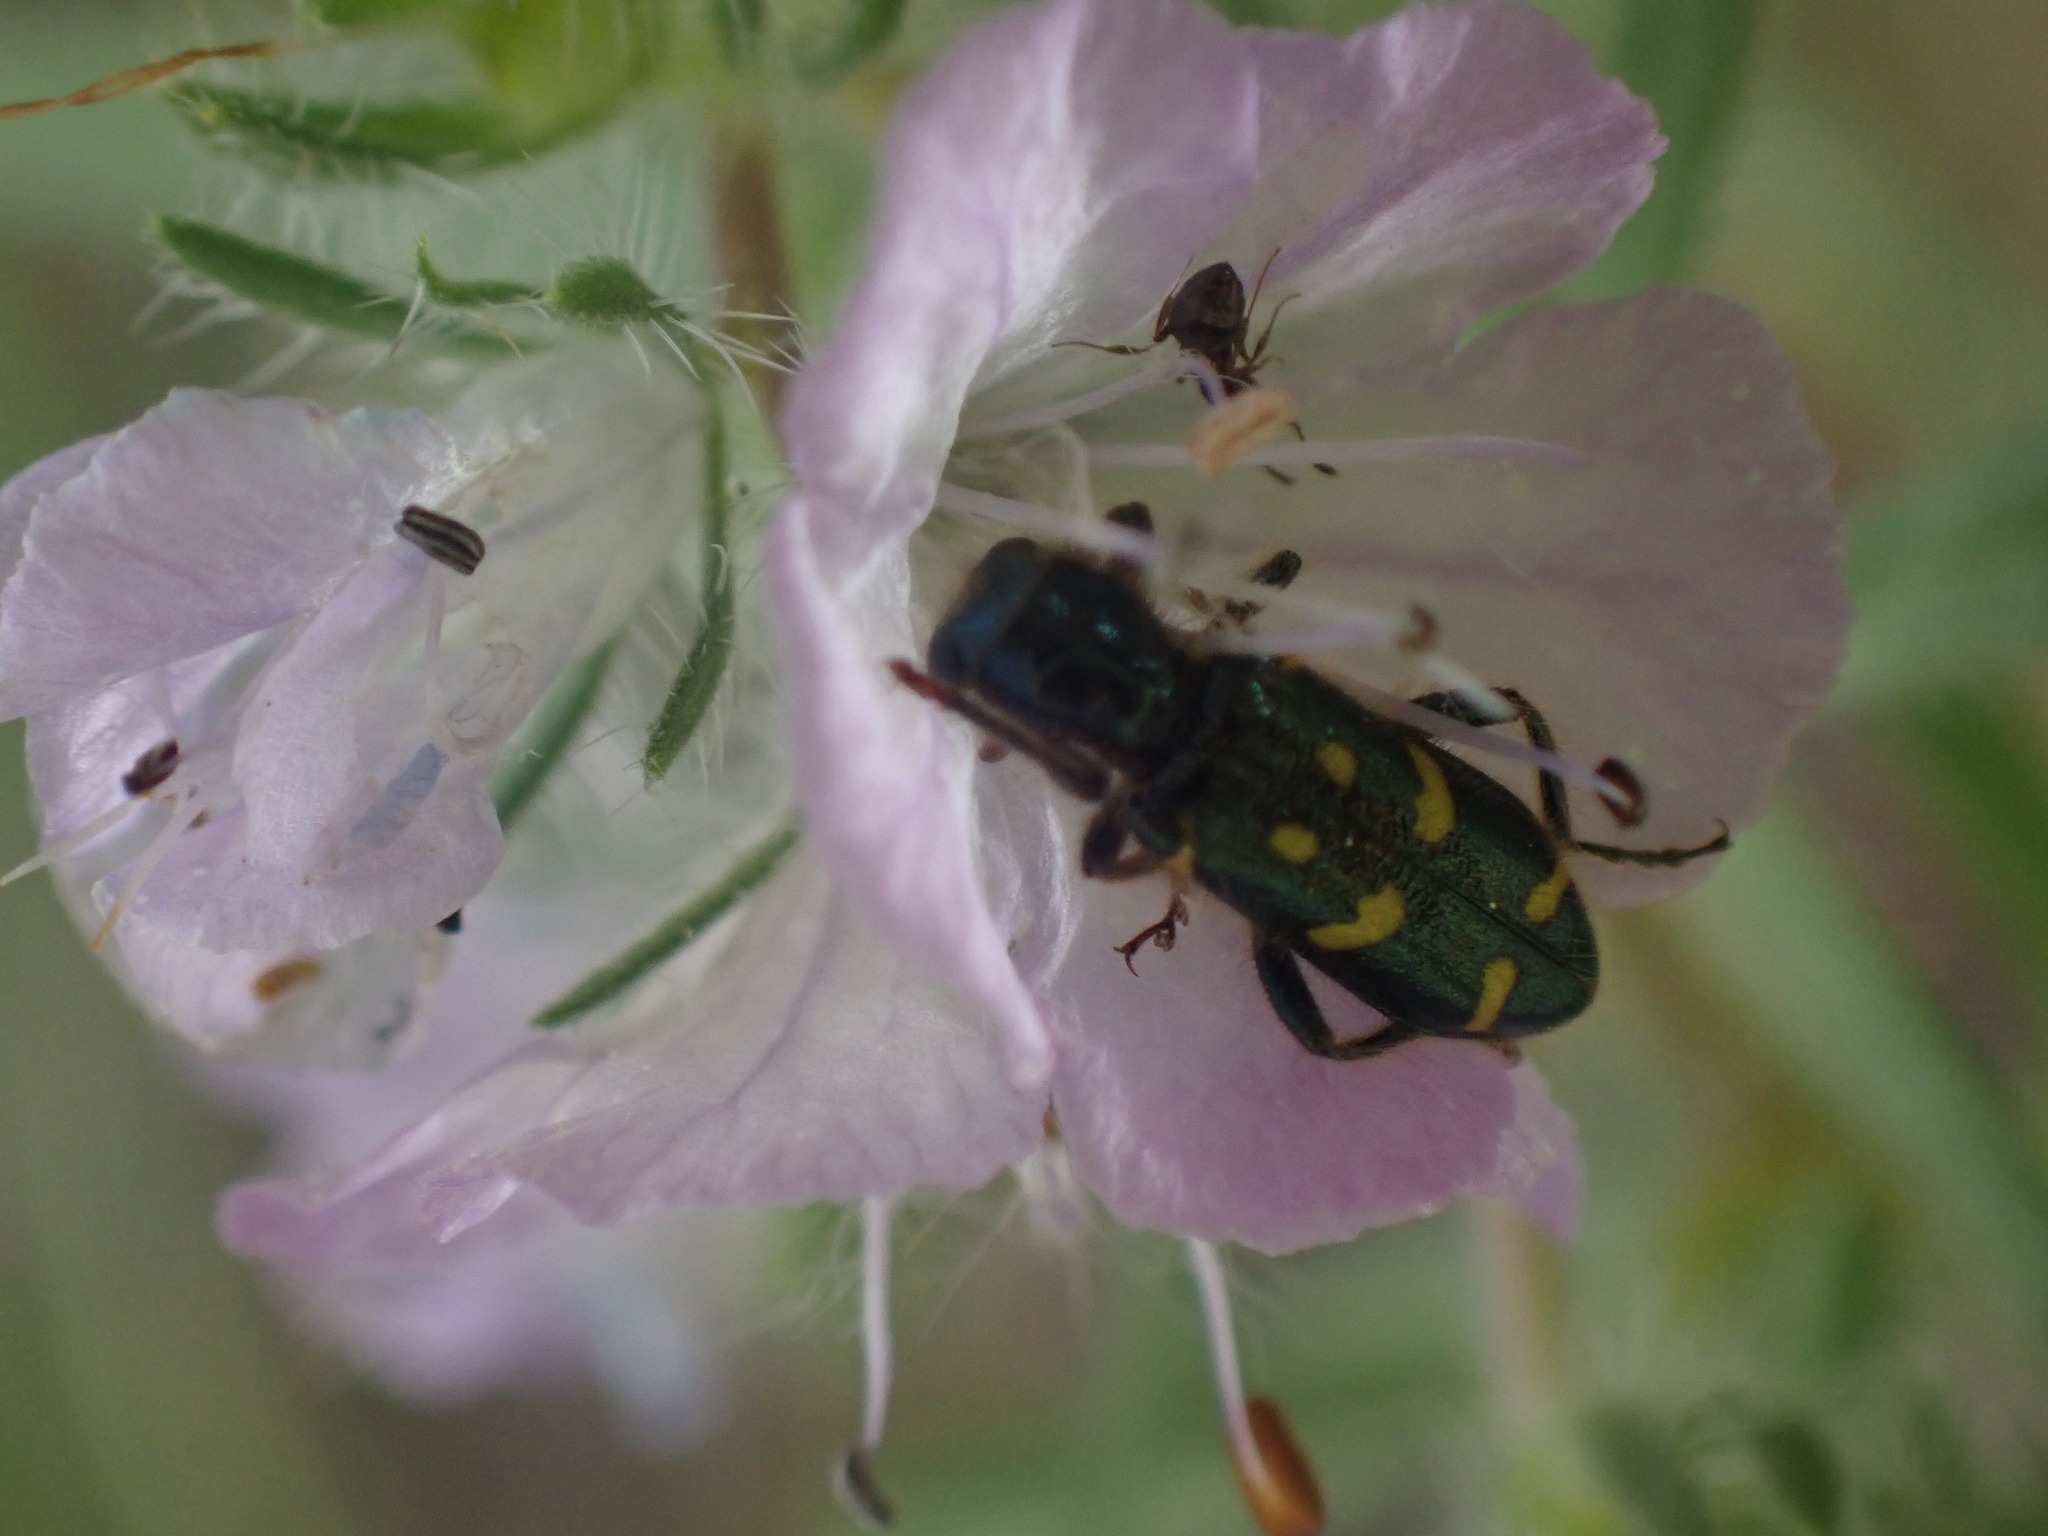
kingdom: Animalia
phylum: Arthropoda
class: Insecta
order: Coleoptera
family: Cleridae
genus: Trichodes
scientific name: Trichodes ornatus
